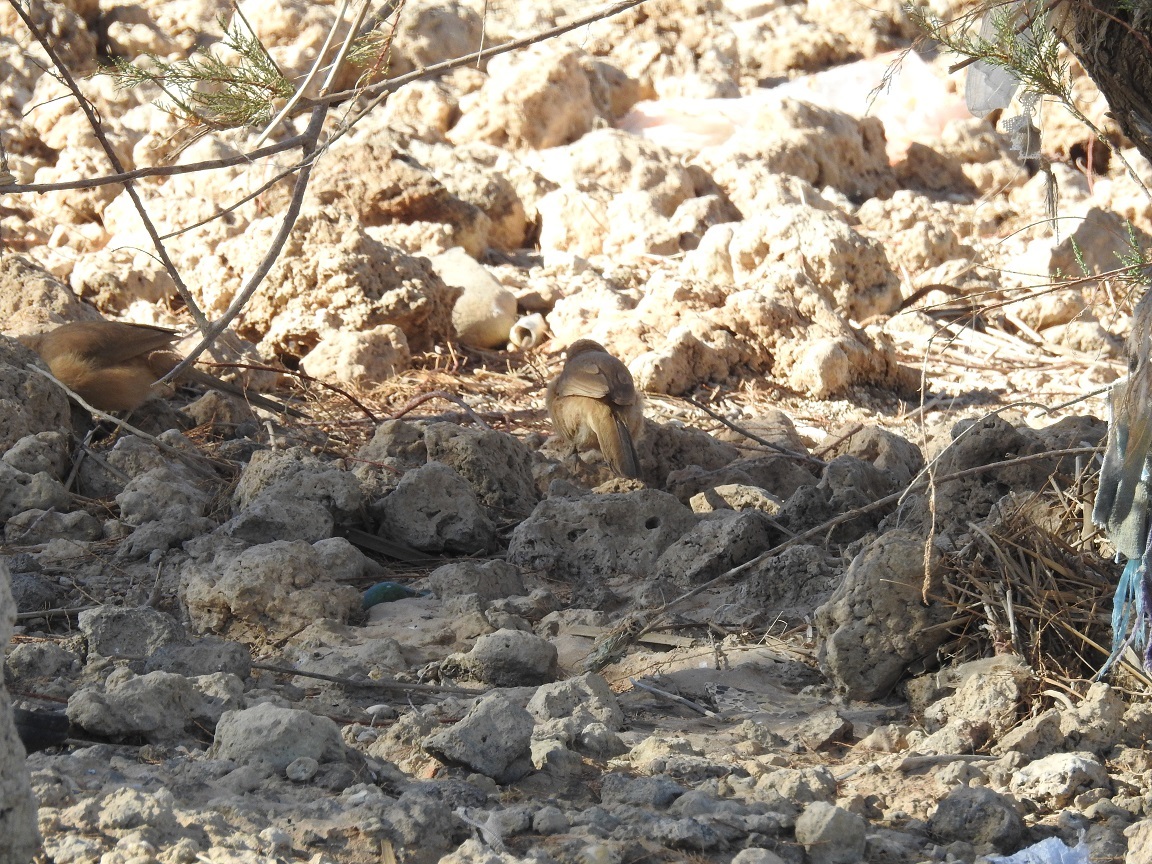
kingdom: Animalia
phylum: Chordata
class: Aves
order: Passeriformes
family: Leiothrichidae
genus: Turdoides
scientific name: Turdoides fulva
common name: Fulvous babbler
